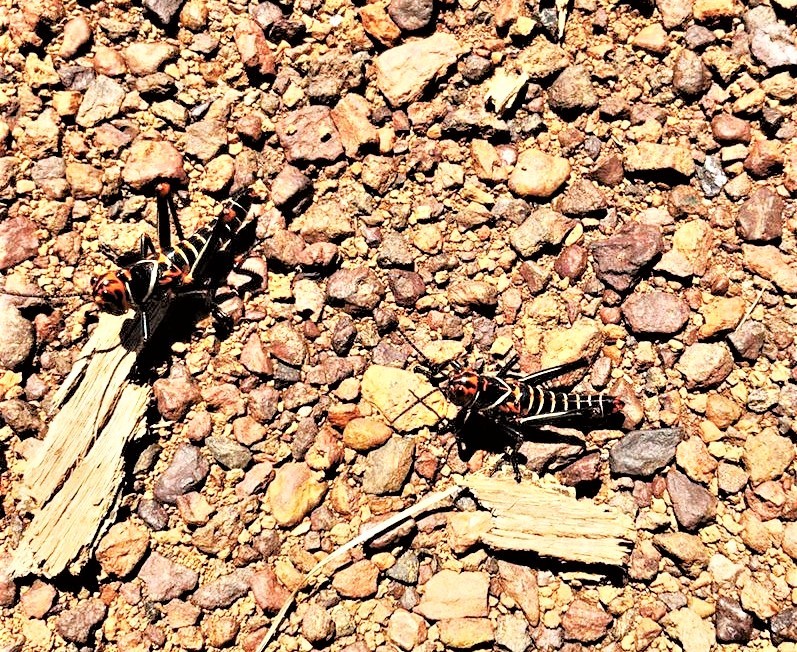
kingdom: Animalia
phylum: Arthropoda
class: Insecta
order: Orthoptera
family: Romaleidae
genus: Tropidacris
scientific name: Tropidacris collaris
